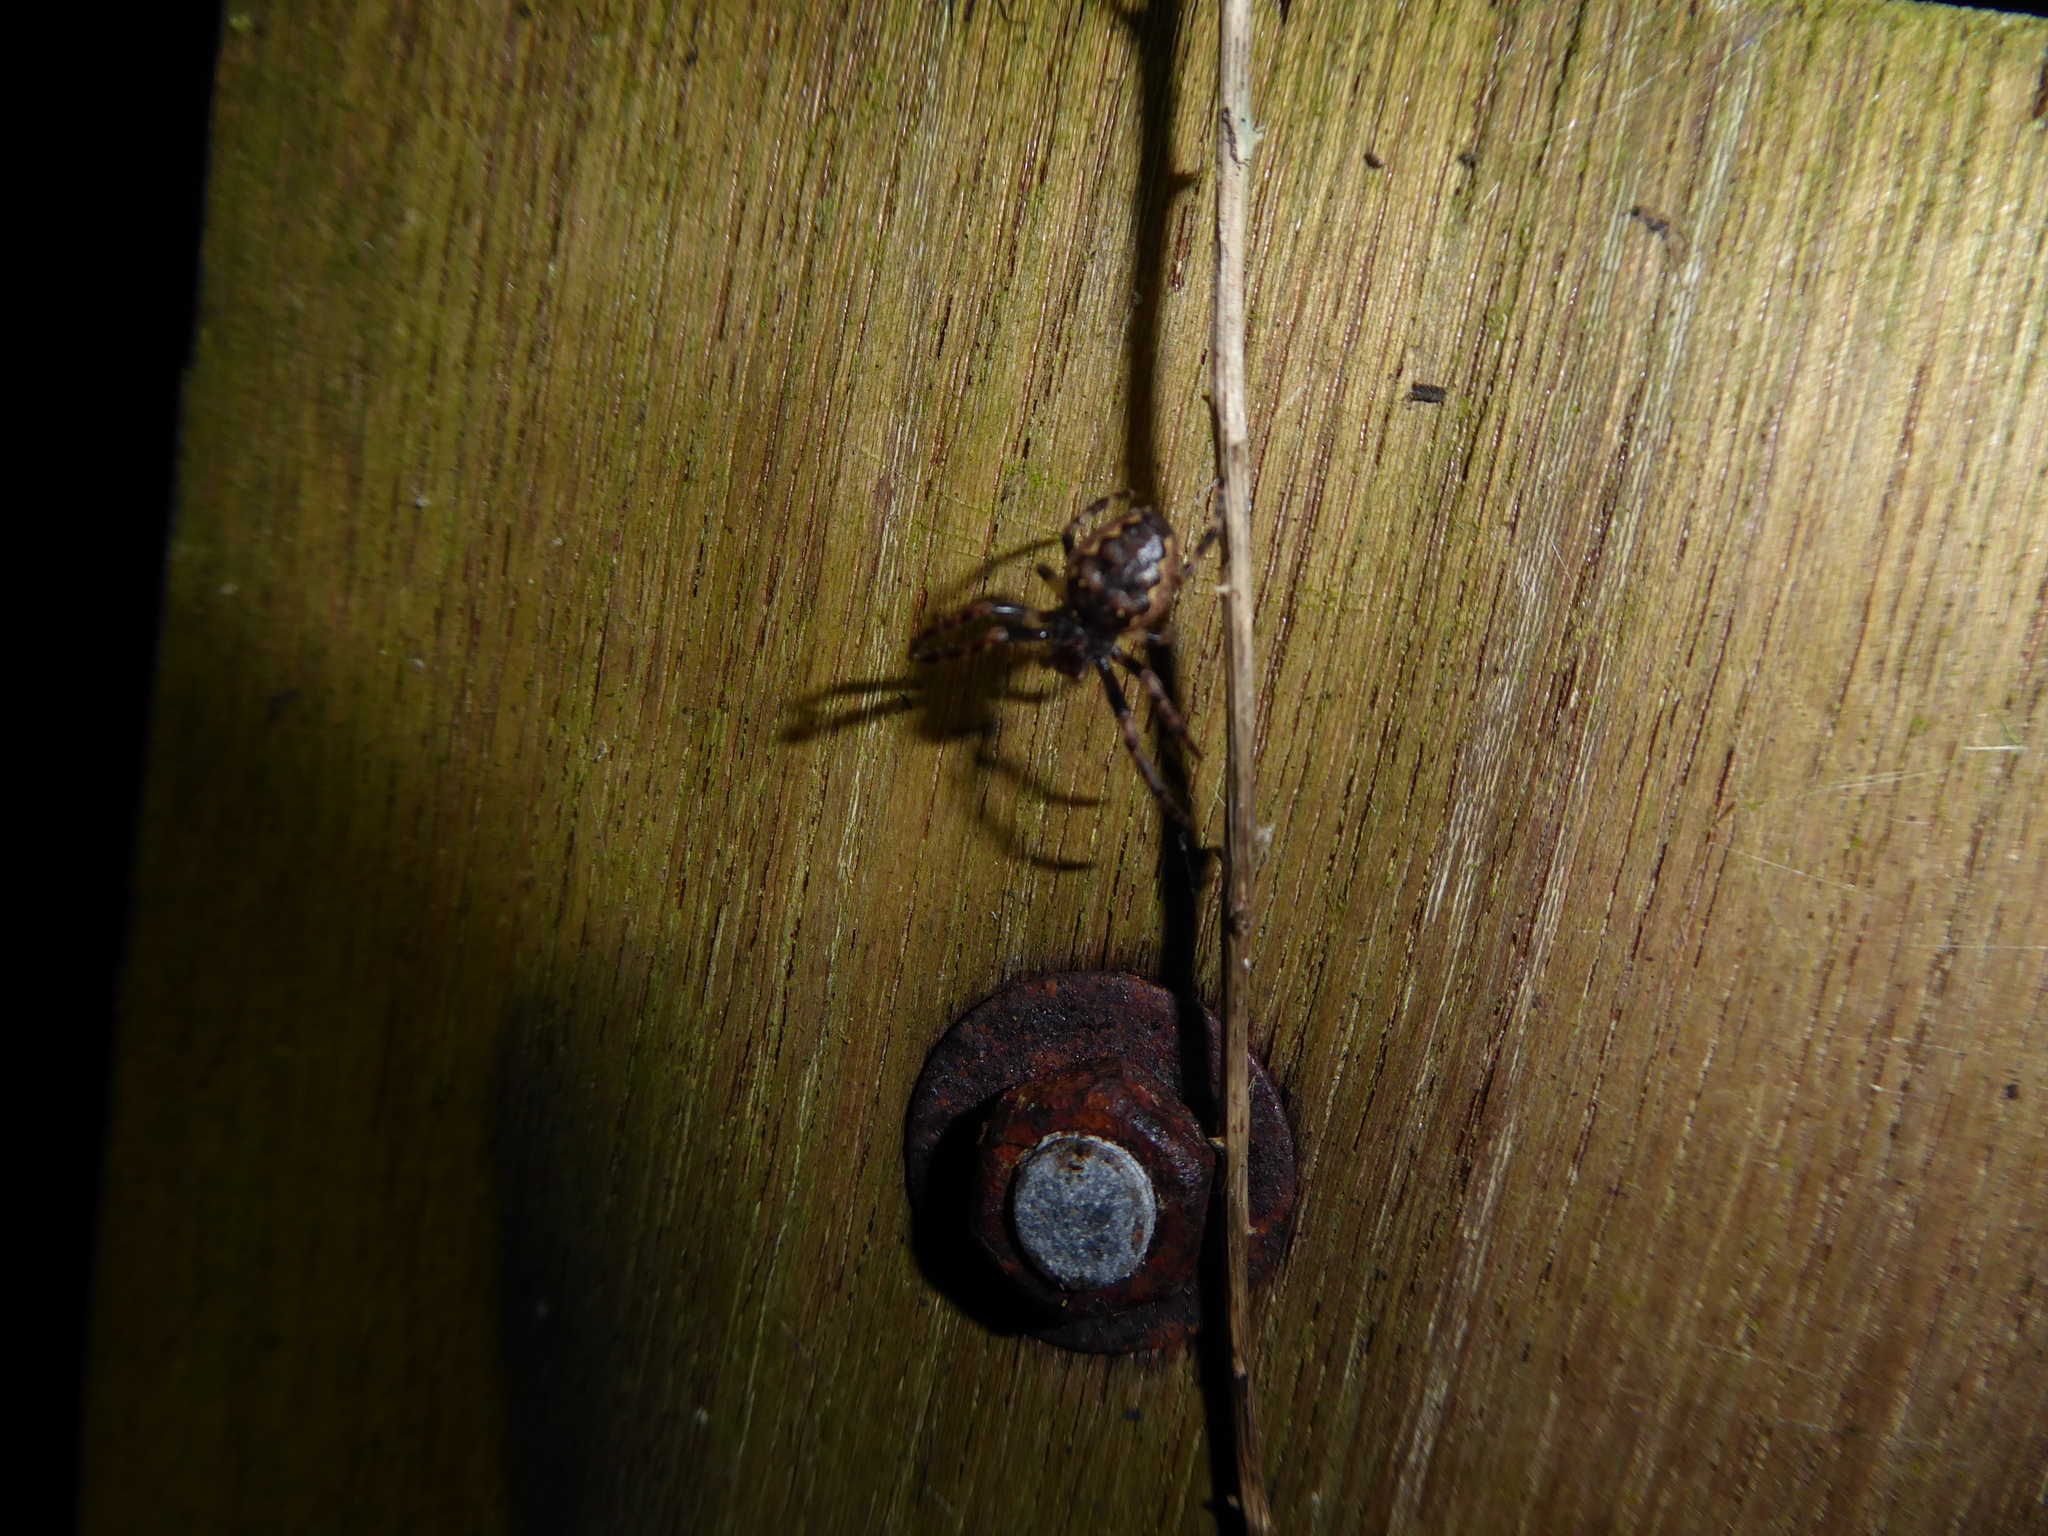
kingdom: Animalia
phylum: Arthropoda
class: Arachnida
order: Araneae
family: Araneidae
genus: Nuctenea
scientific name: Nuctenea umbratica
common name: Toad spider
